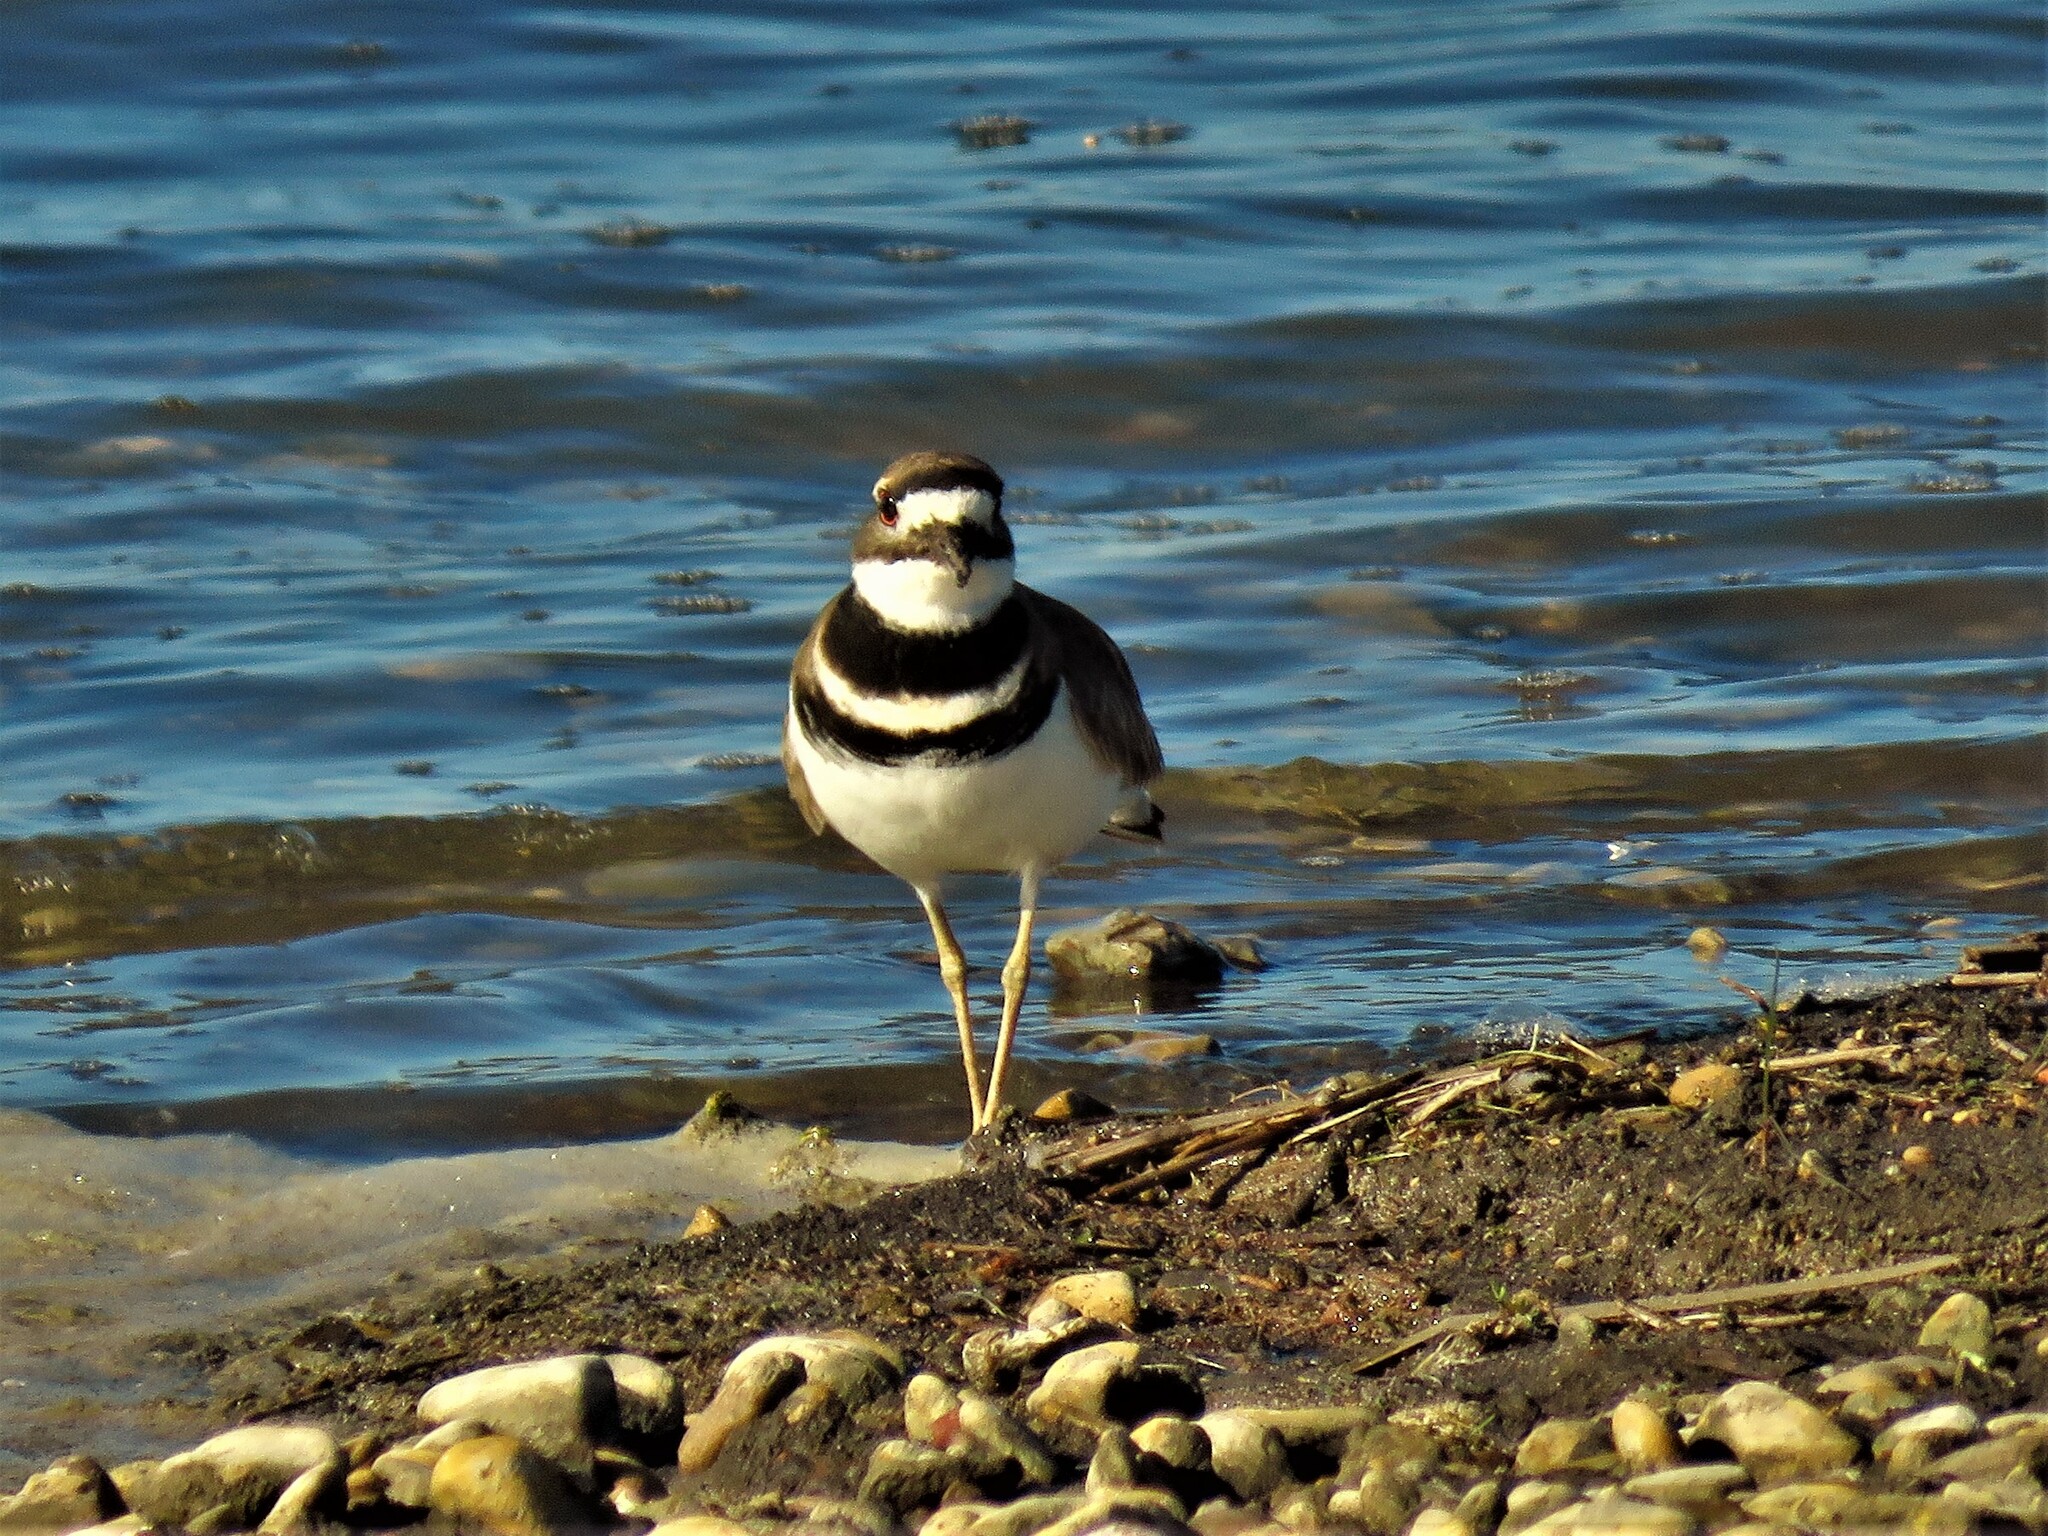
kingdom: Animalia
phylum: Chordata
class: Aves
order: Charadriiformes
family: Charadriidae
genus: Charadrius
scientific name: Charadrius vociferus
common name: Killdeer
